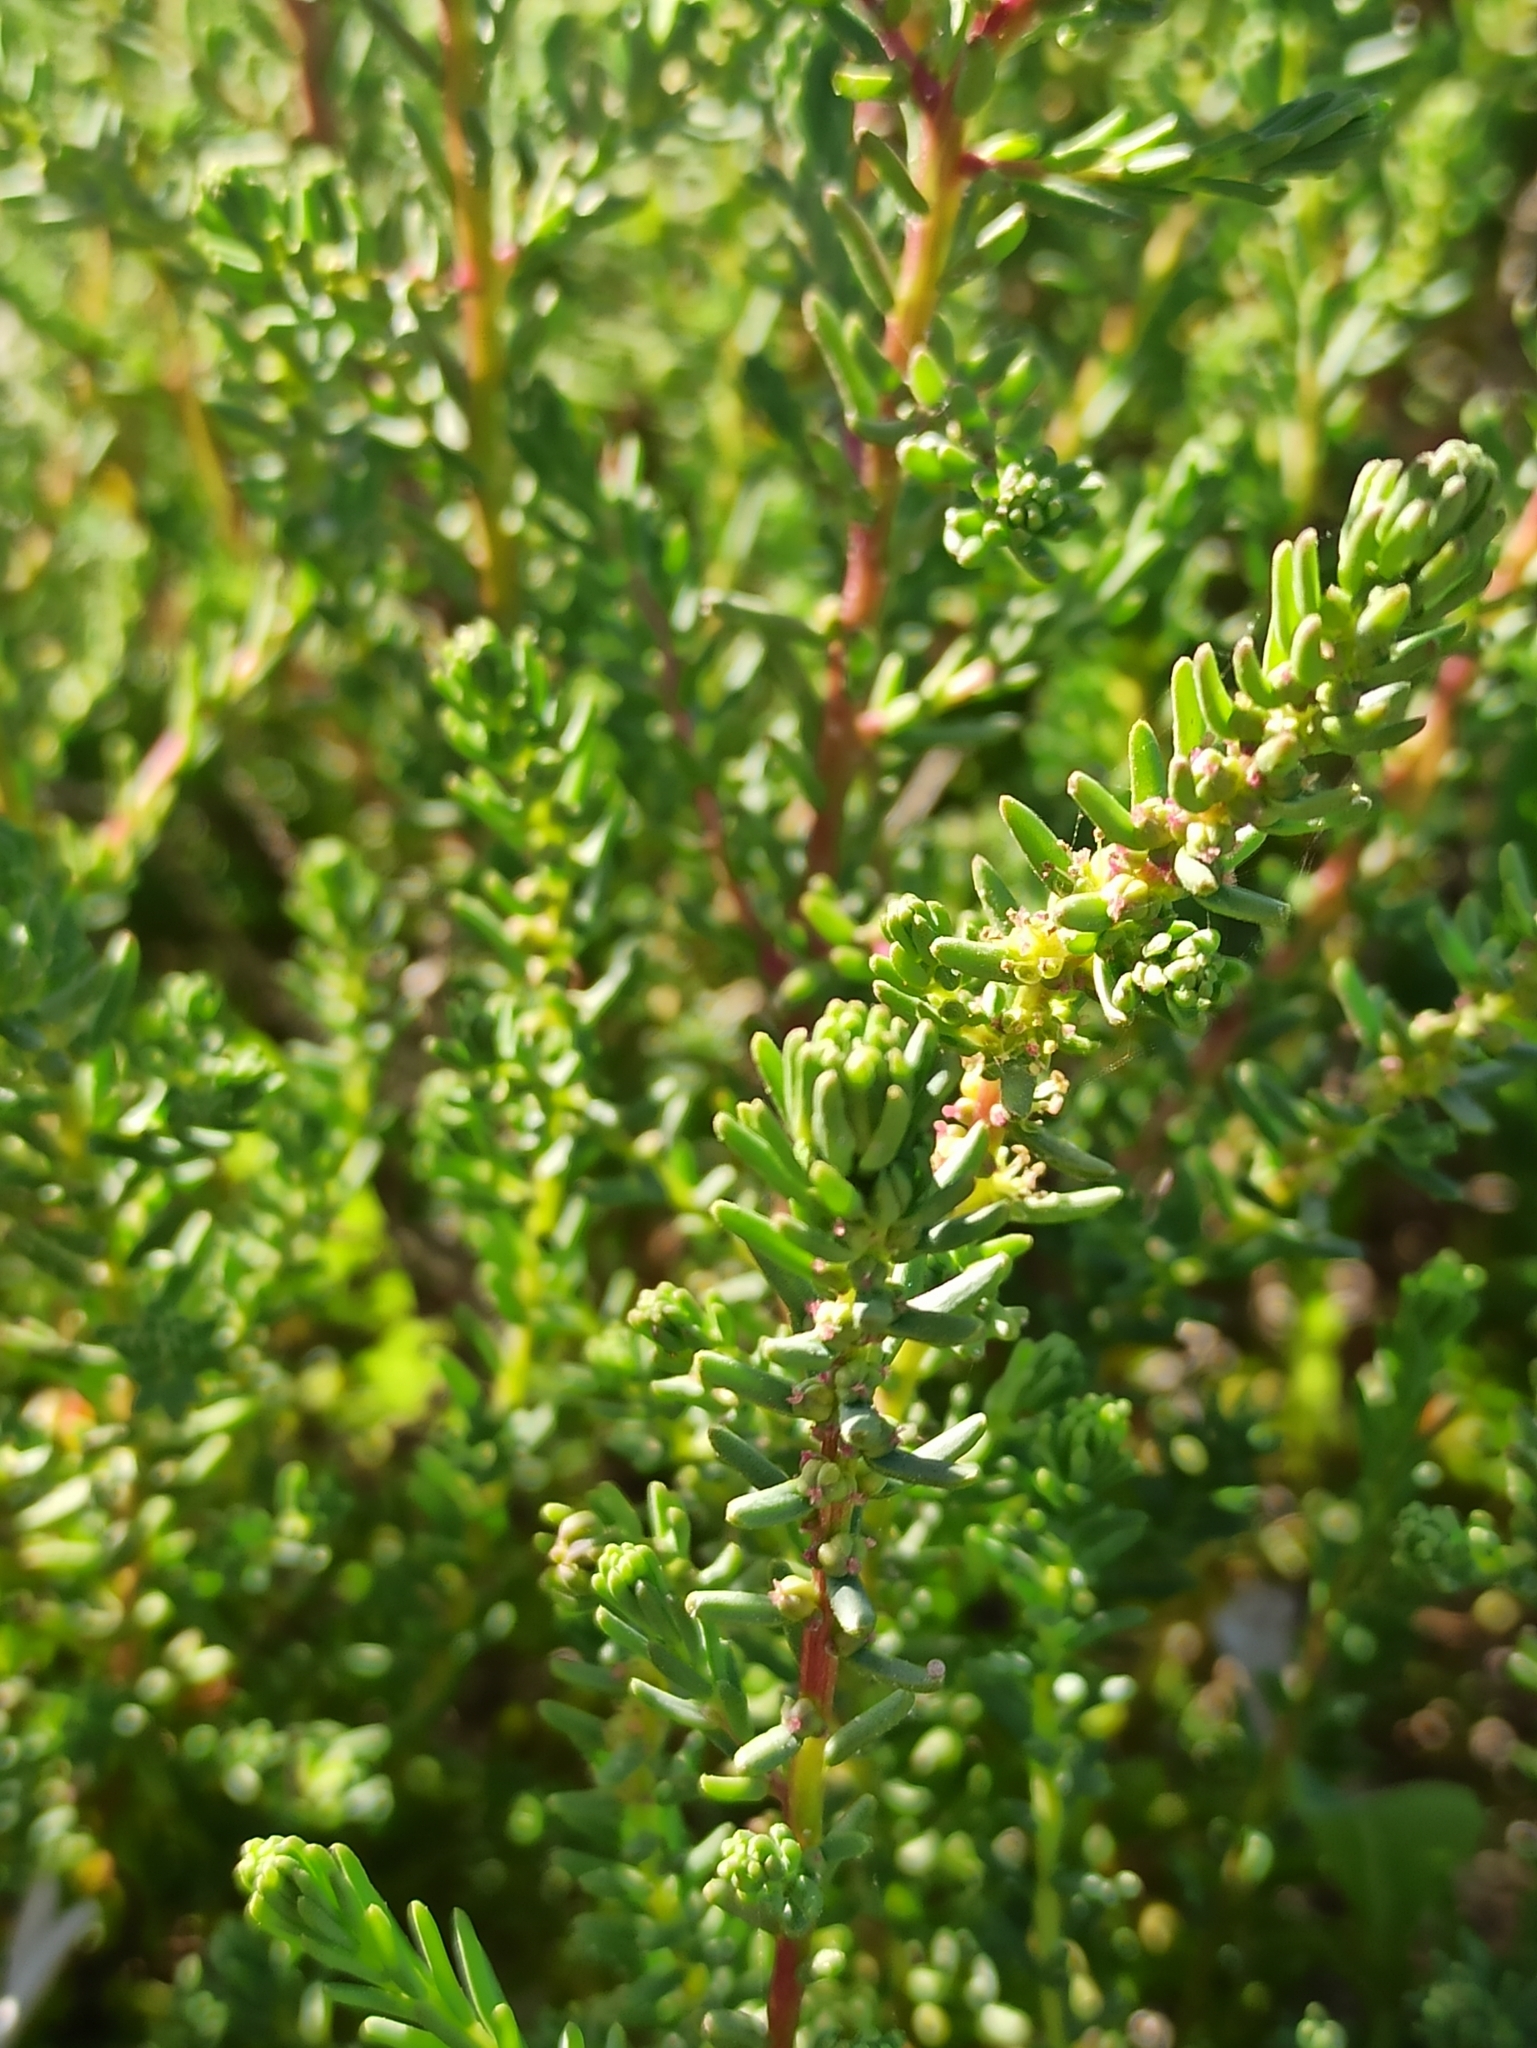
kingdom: Plantae
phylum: Tracheophyta
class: Magnoliopsida
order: Caryophyllales
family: Amaranthaceae
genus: Suaeda
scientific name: Suaeda vera
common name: Shrubby sea-blite
